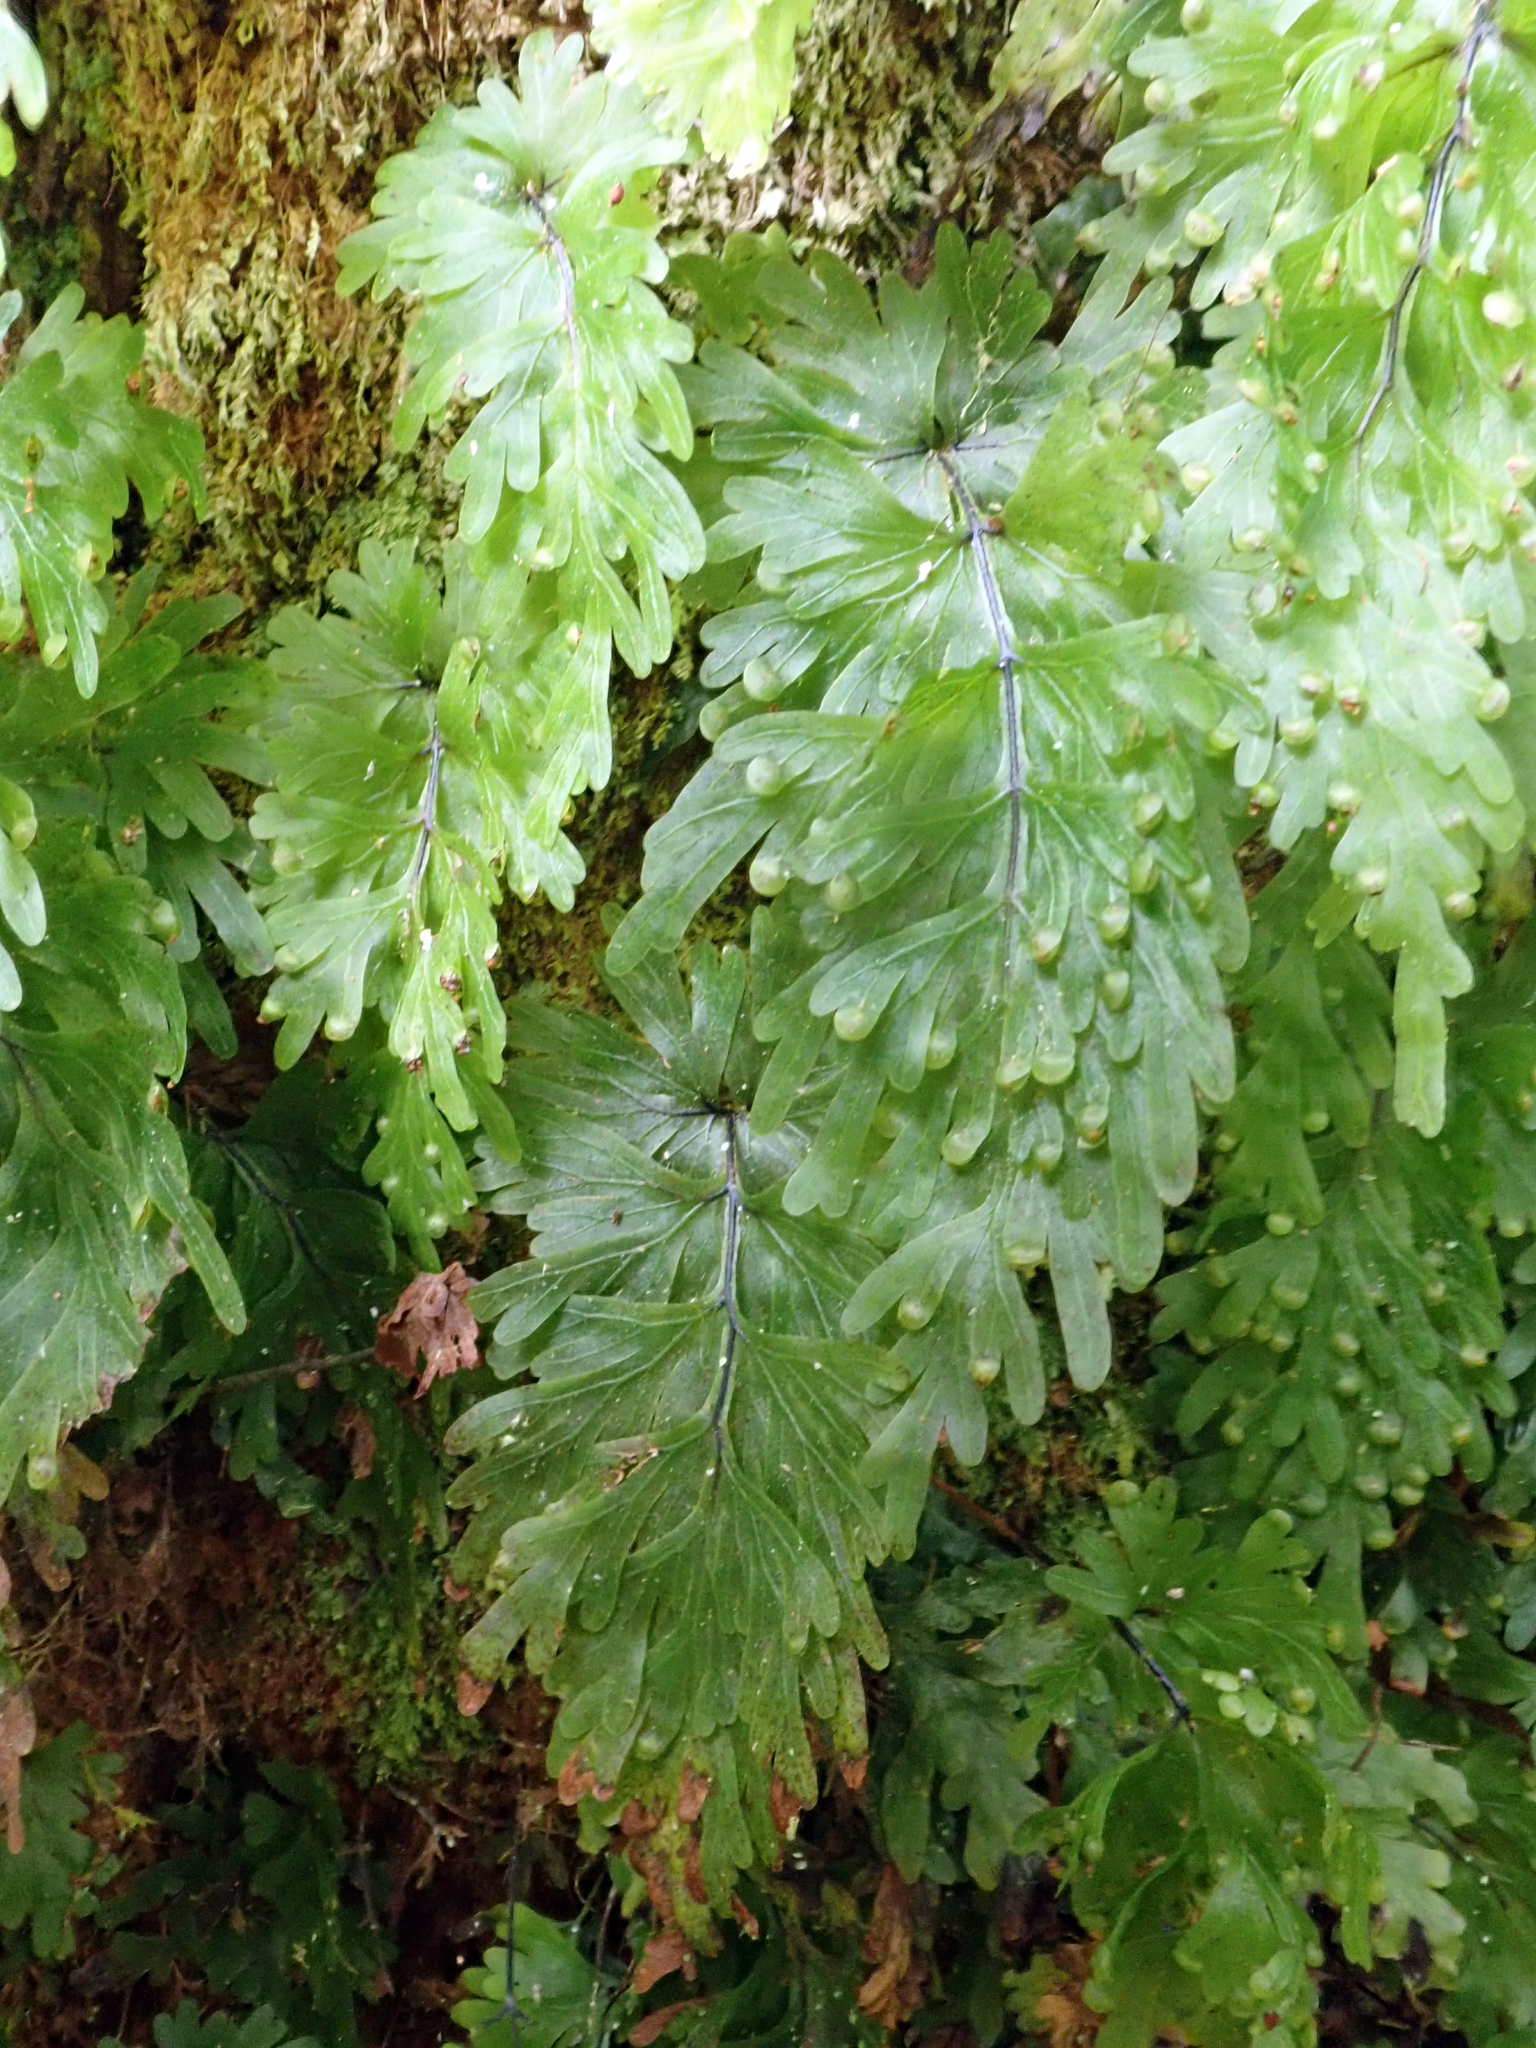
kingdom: Plantae
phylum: Tracheophyta
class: Polypodiopsida
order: Hymenophyllales
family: Hymenophyllaceae
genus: Hymenophyllum
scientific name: Hymenophyllum flabellatum
